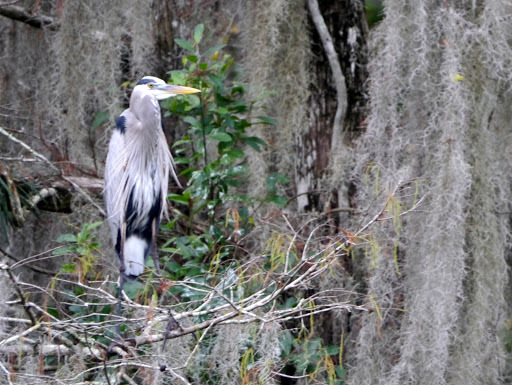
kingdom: Animalia
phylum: Chordata
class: Aves
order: Pelecaniformes
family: Ardeidae
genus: Ardea
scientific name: Ardea herodias
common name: Great blue heron
